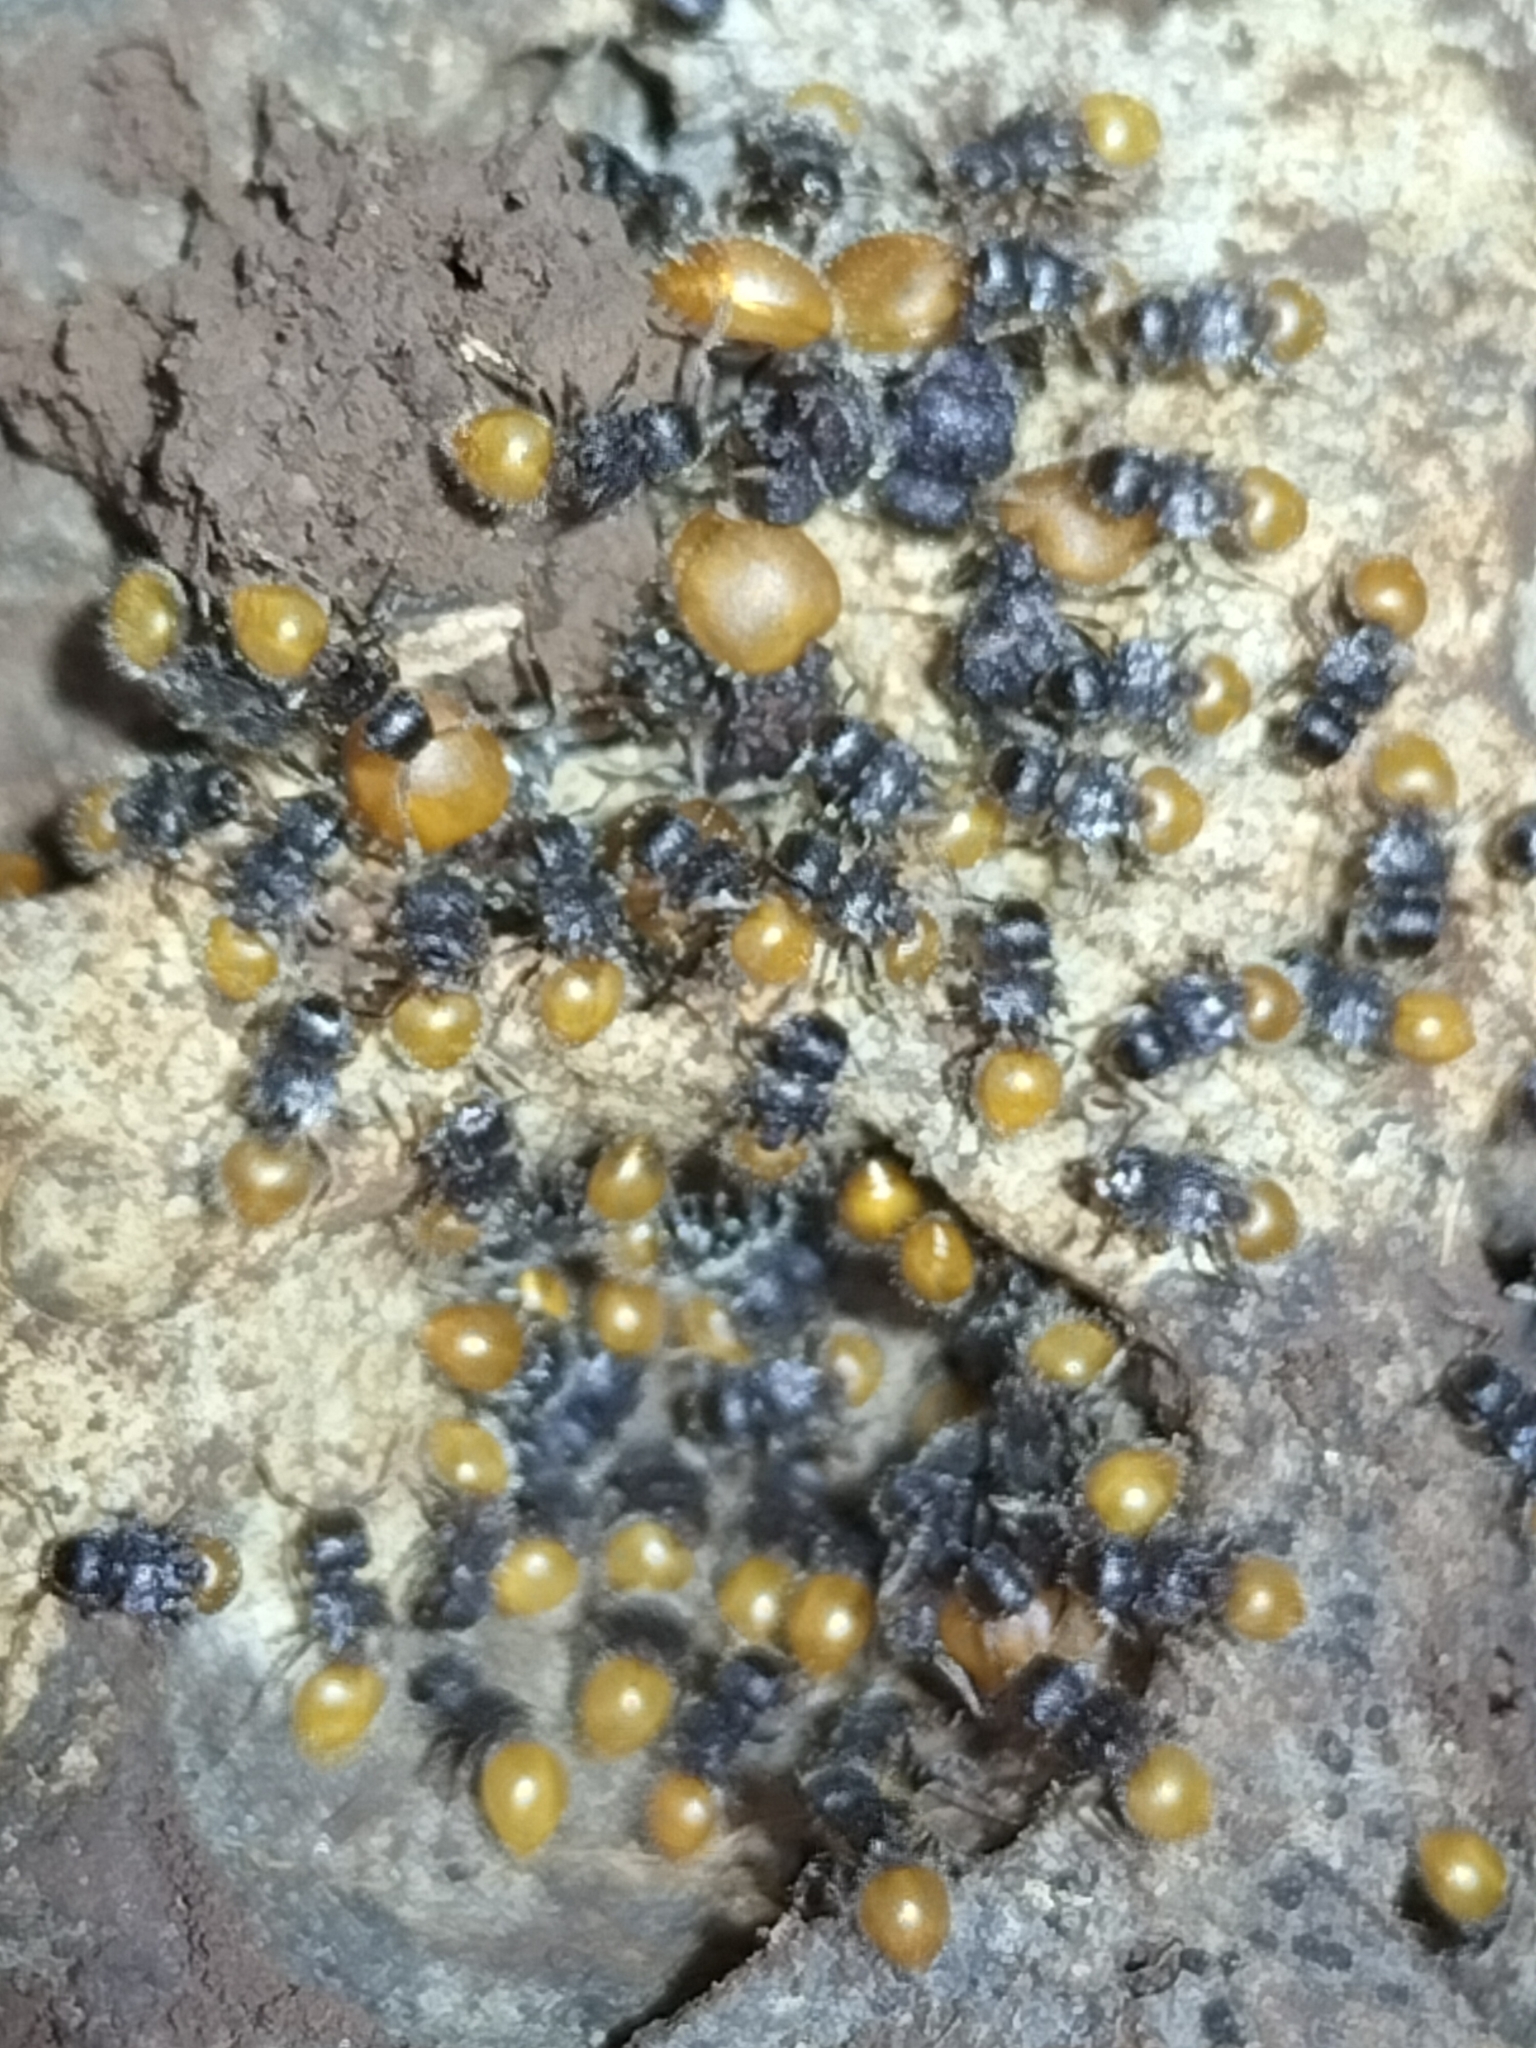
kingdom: Animalia
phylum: Arthropoda
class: Insecta
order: Hymenoptera
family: Formicidae
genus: Meranoplus
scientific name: Meranoplus hirsutus
